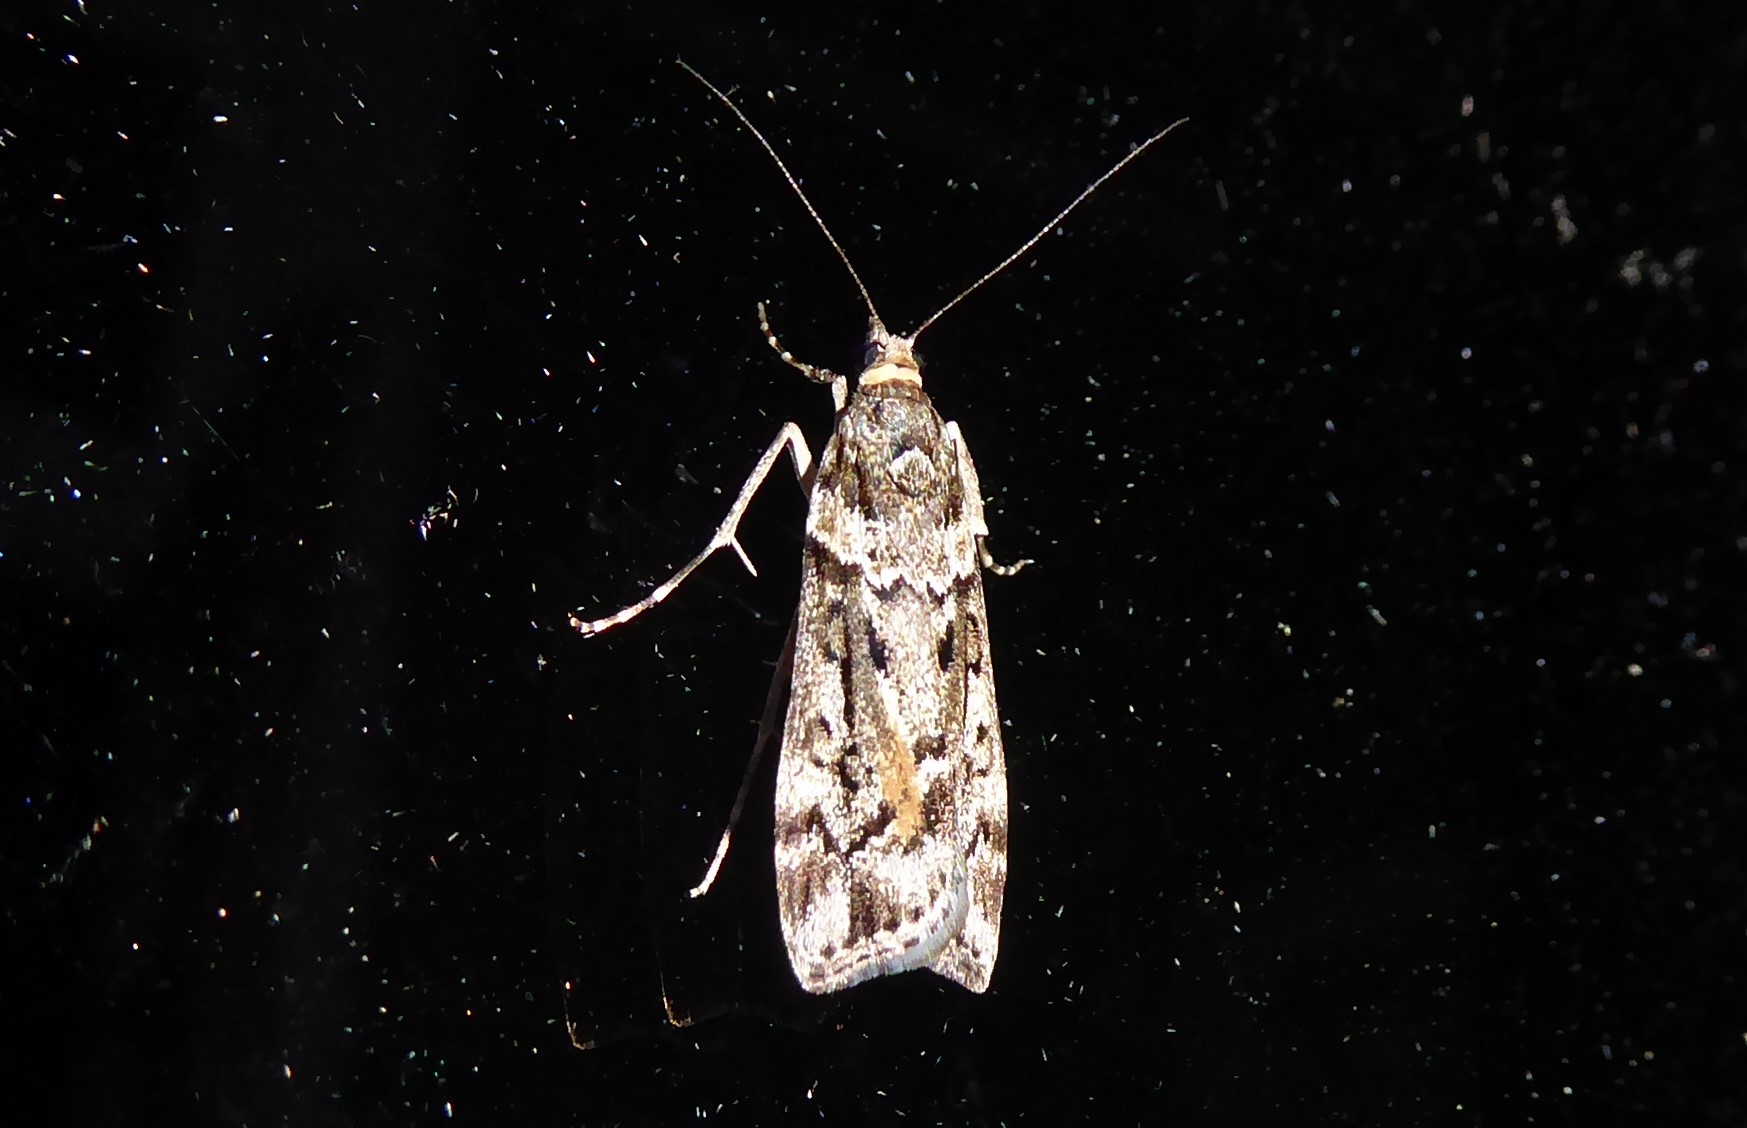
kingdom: Animalia
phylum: Arthropoda
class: Insecta
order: Lepidoptera
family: Crambidae
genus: Eudonia
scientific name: Eudonia submarginalis
